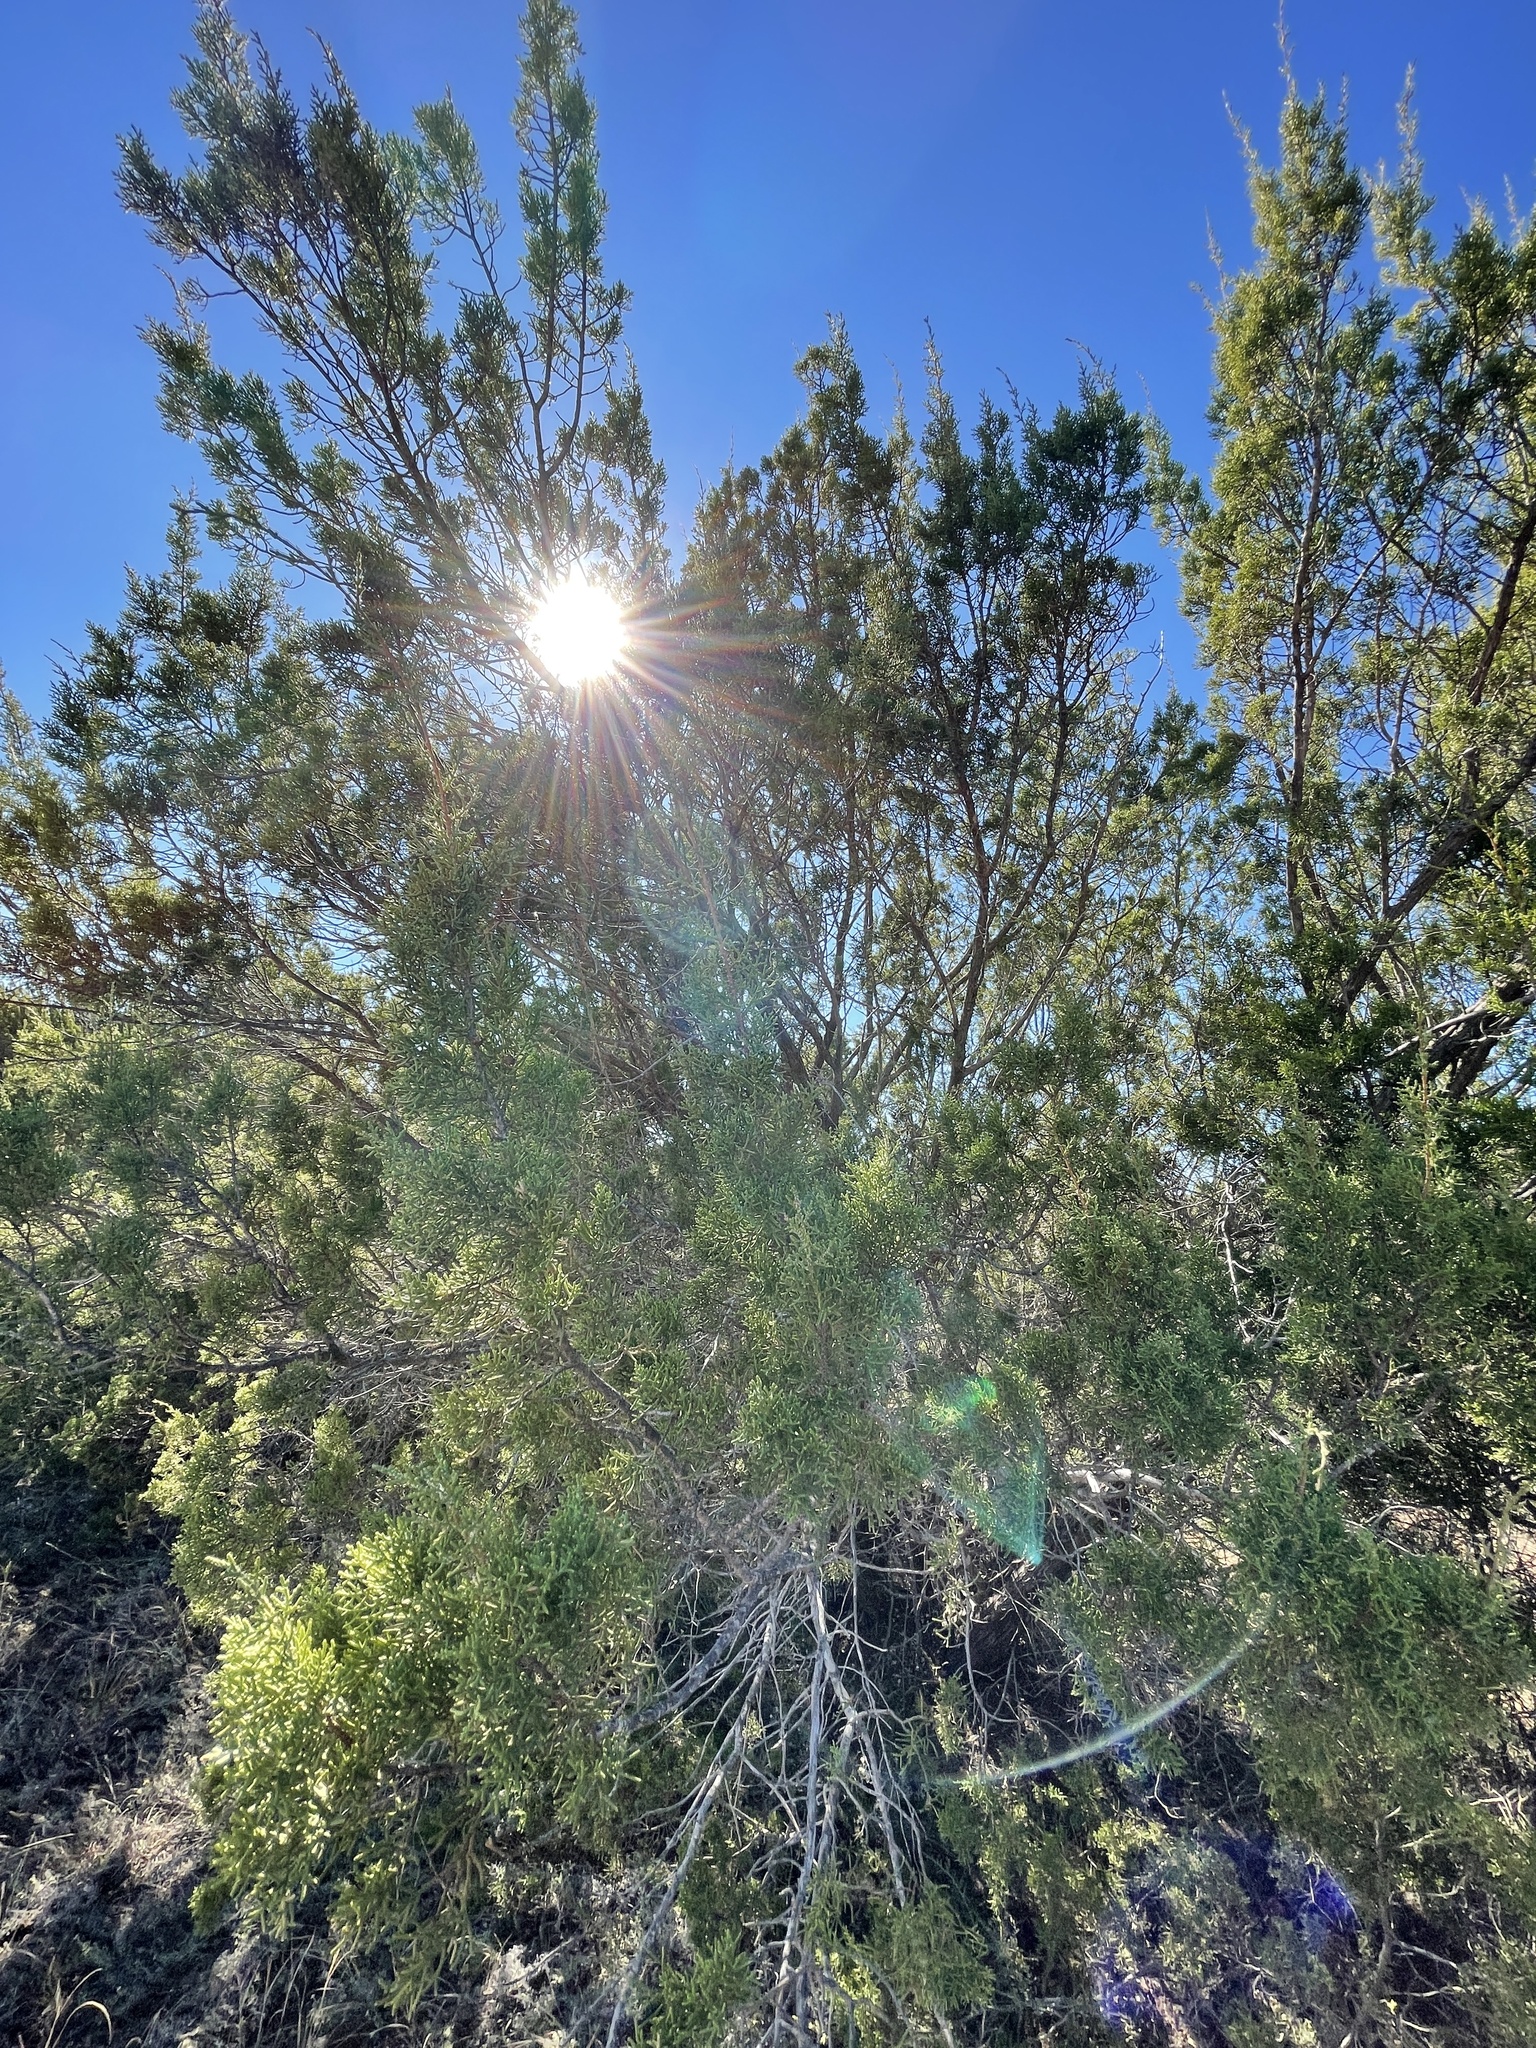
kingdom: Plantae
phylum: Tracheophyta
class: Pinopsida
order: Pinales
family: Cupressaceae
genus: Juniperus
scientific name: Juniperus pinchotii
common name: Pinchot juniper
